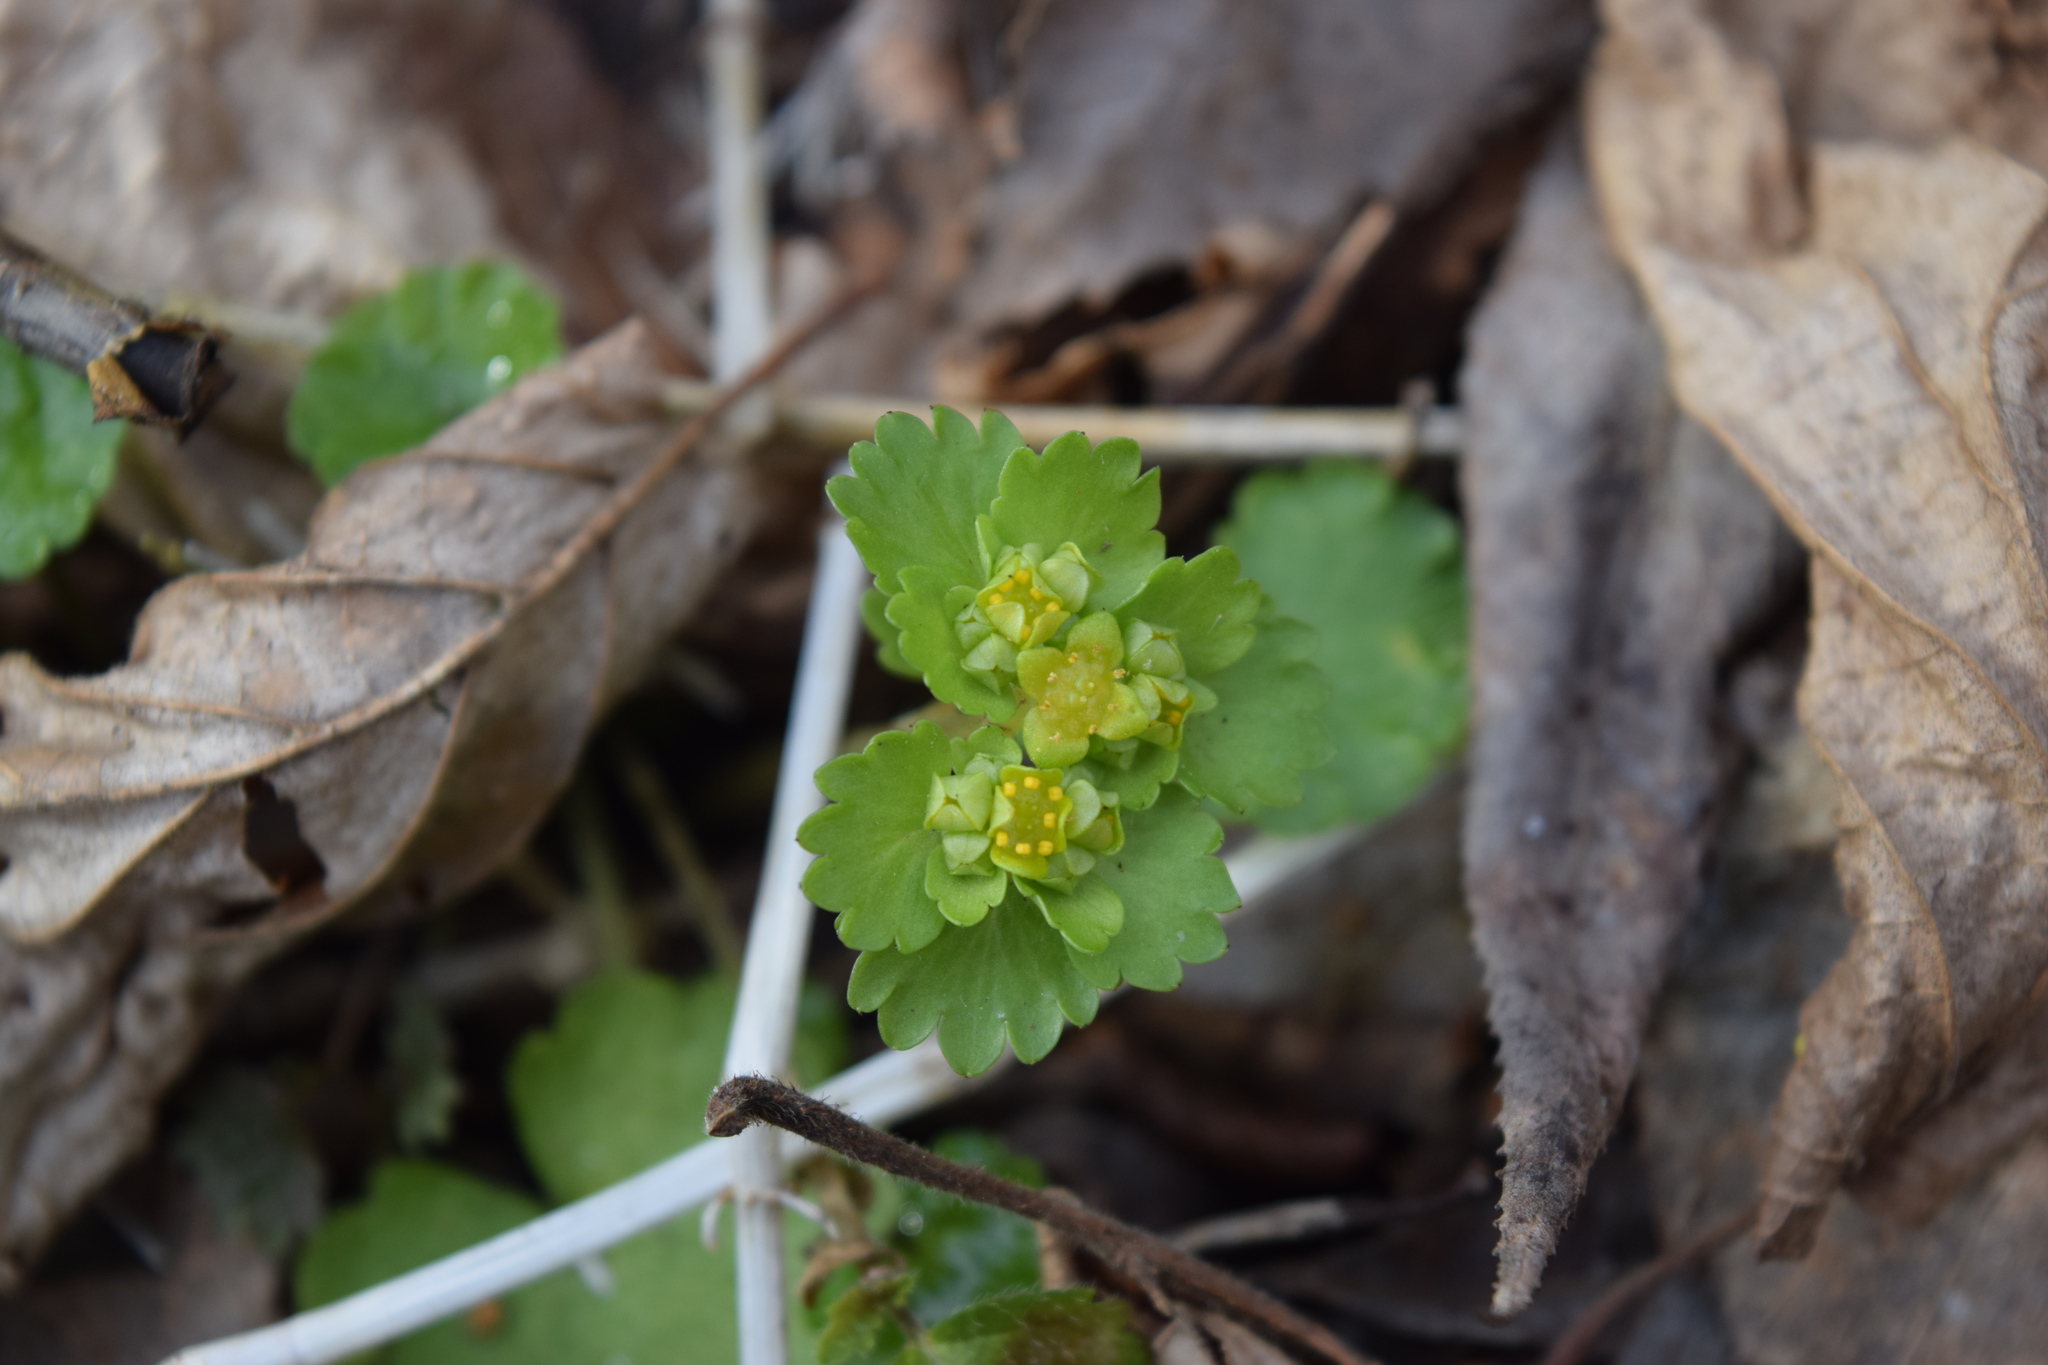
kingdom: Plantae
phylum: Tracheophyta
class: Magnoliopsida
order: Saxifragales
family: Saxifragaceae
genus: Chrysosplenium
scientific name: Chrysosplenium alternifolium
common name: Alternate-leaved golden-saxifrage
